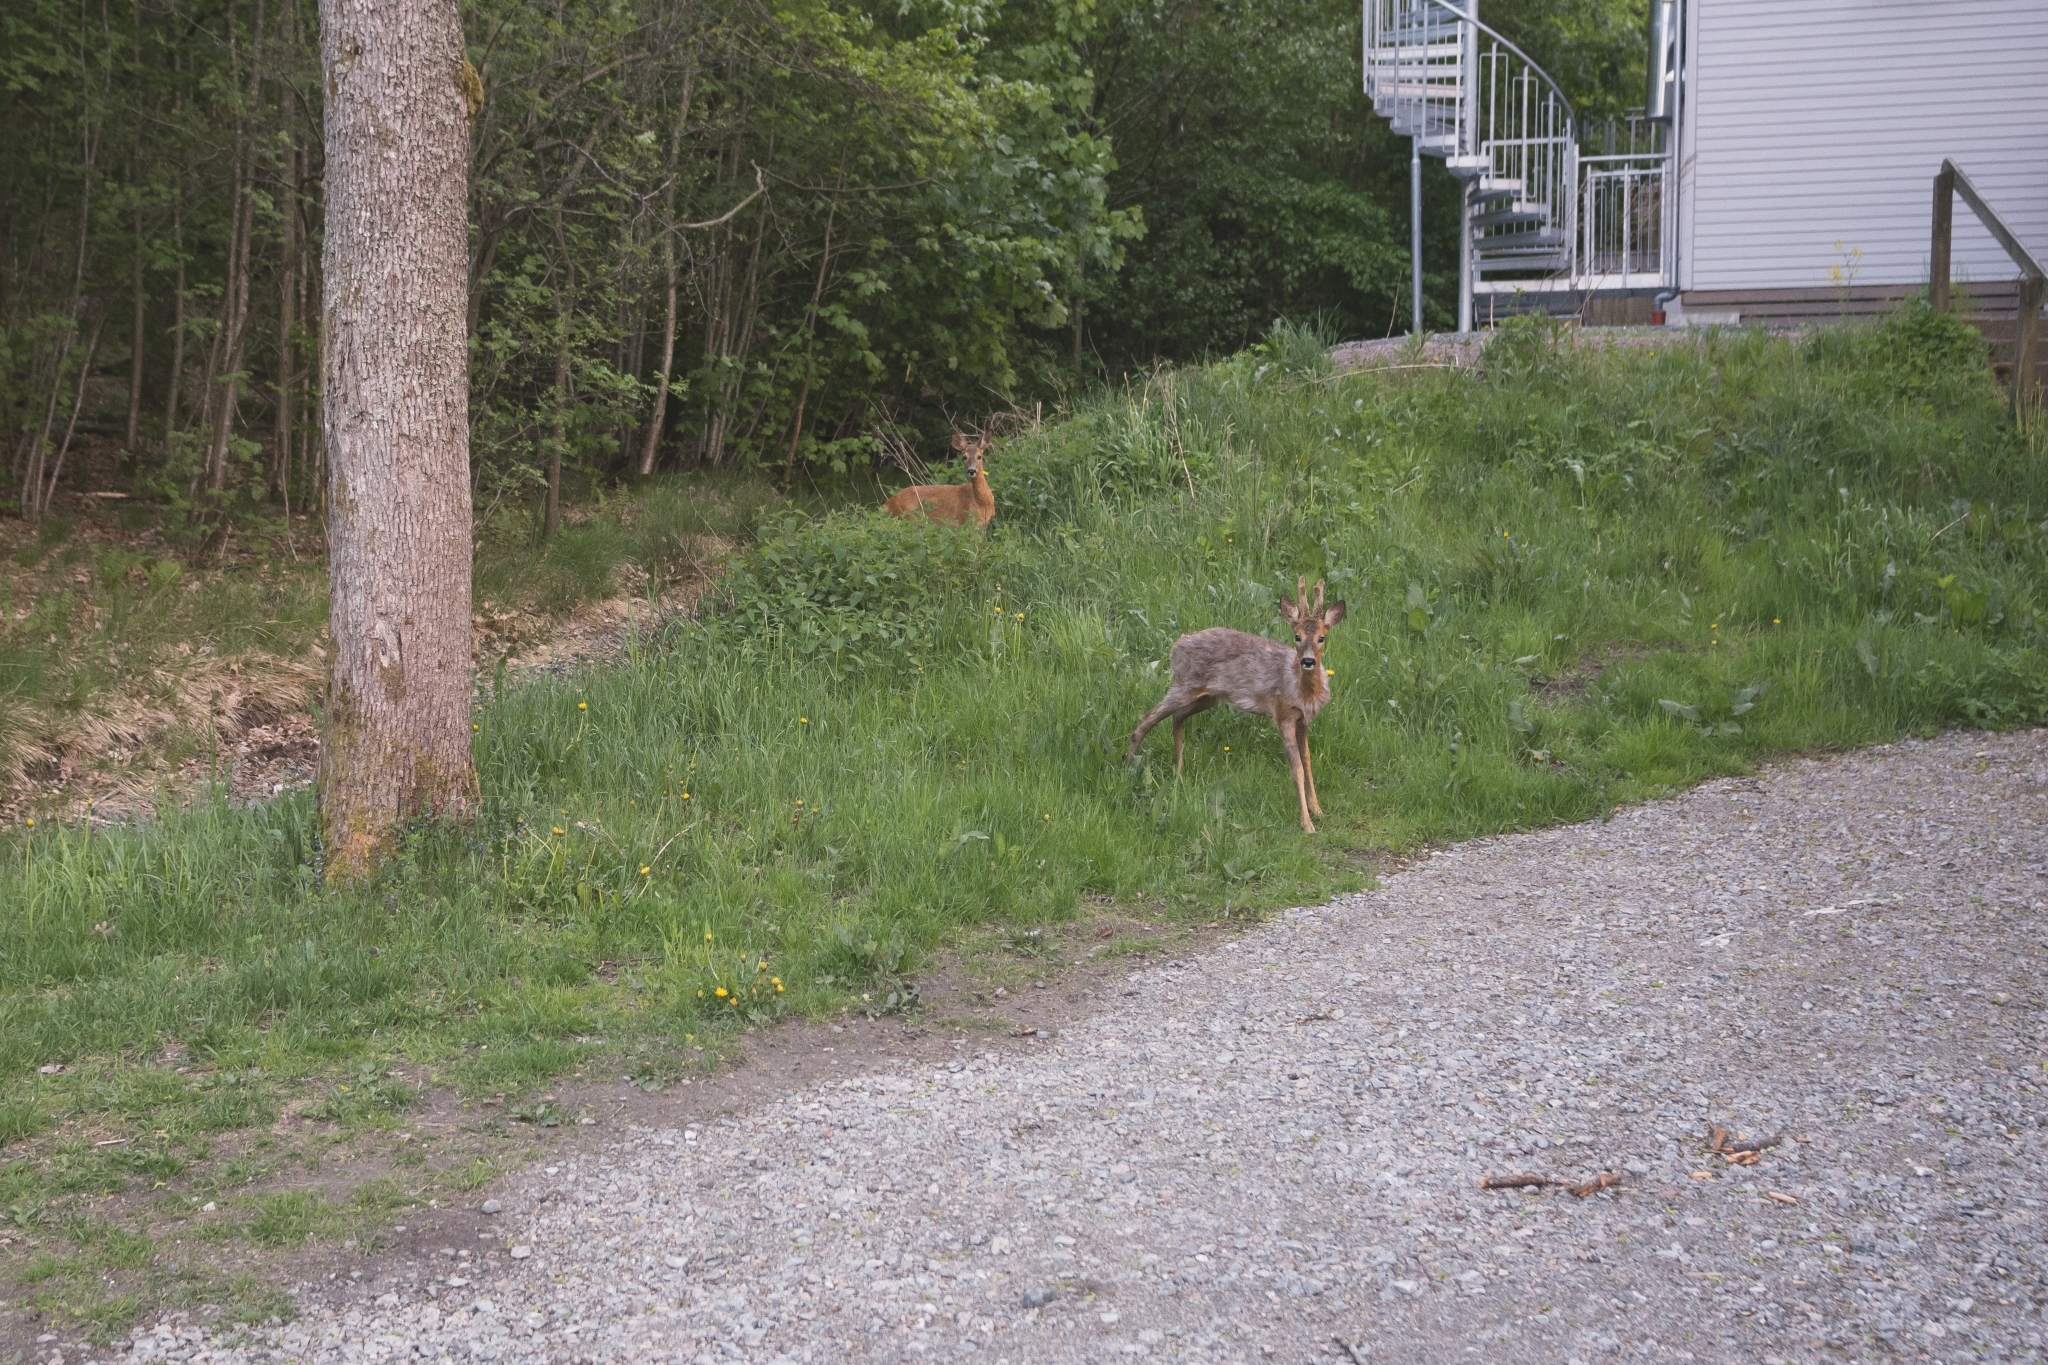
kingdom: Animalia
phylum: Chordata
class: Mammalia
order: Artiodactyla
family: Cervidae
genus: Capreolus
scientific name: Capreolus capreolus
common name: Western roe deer
